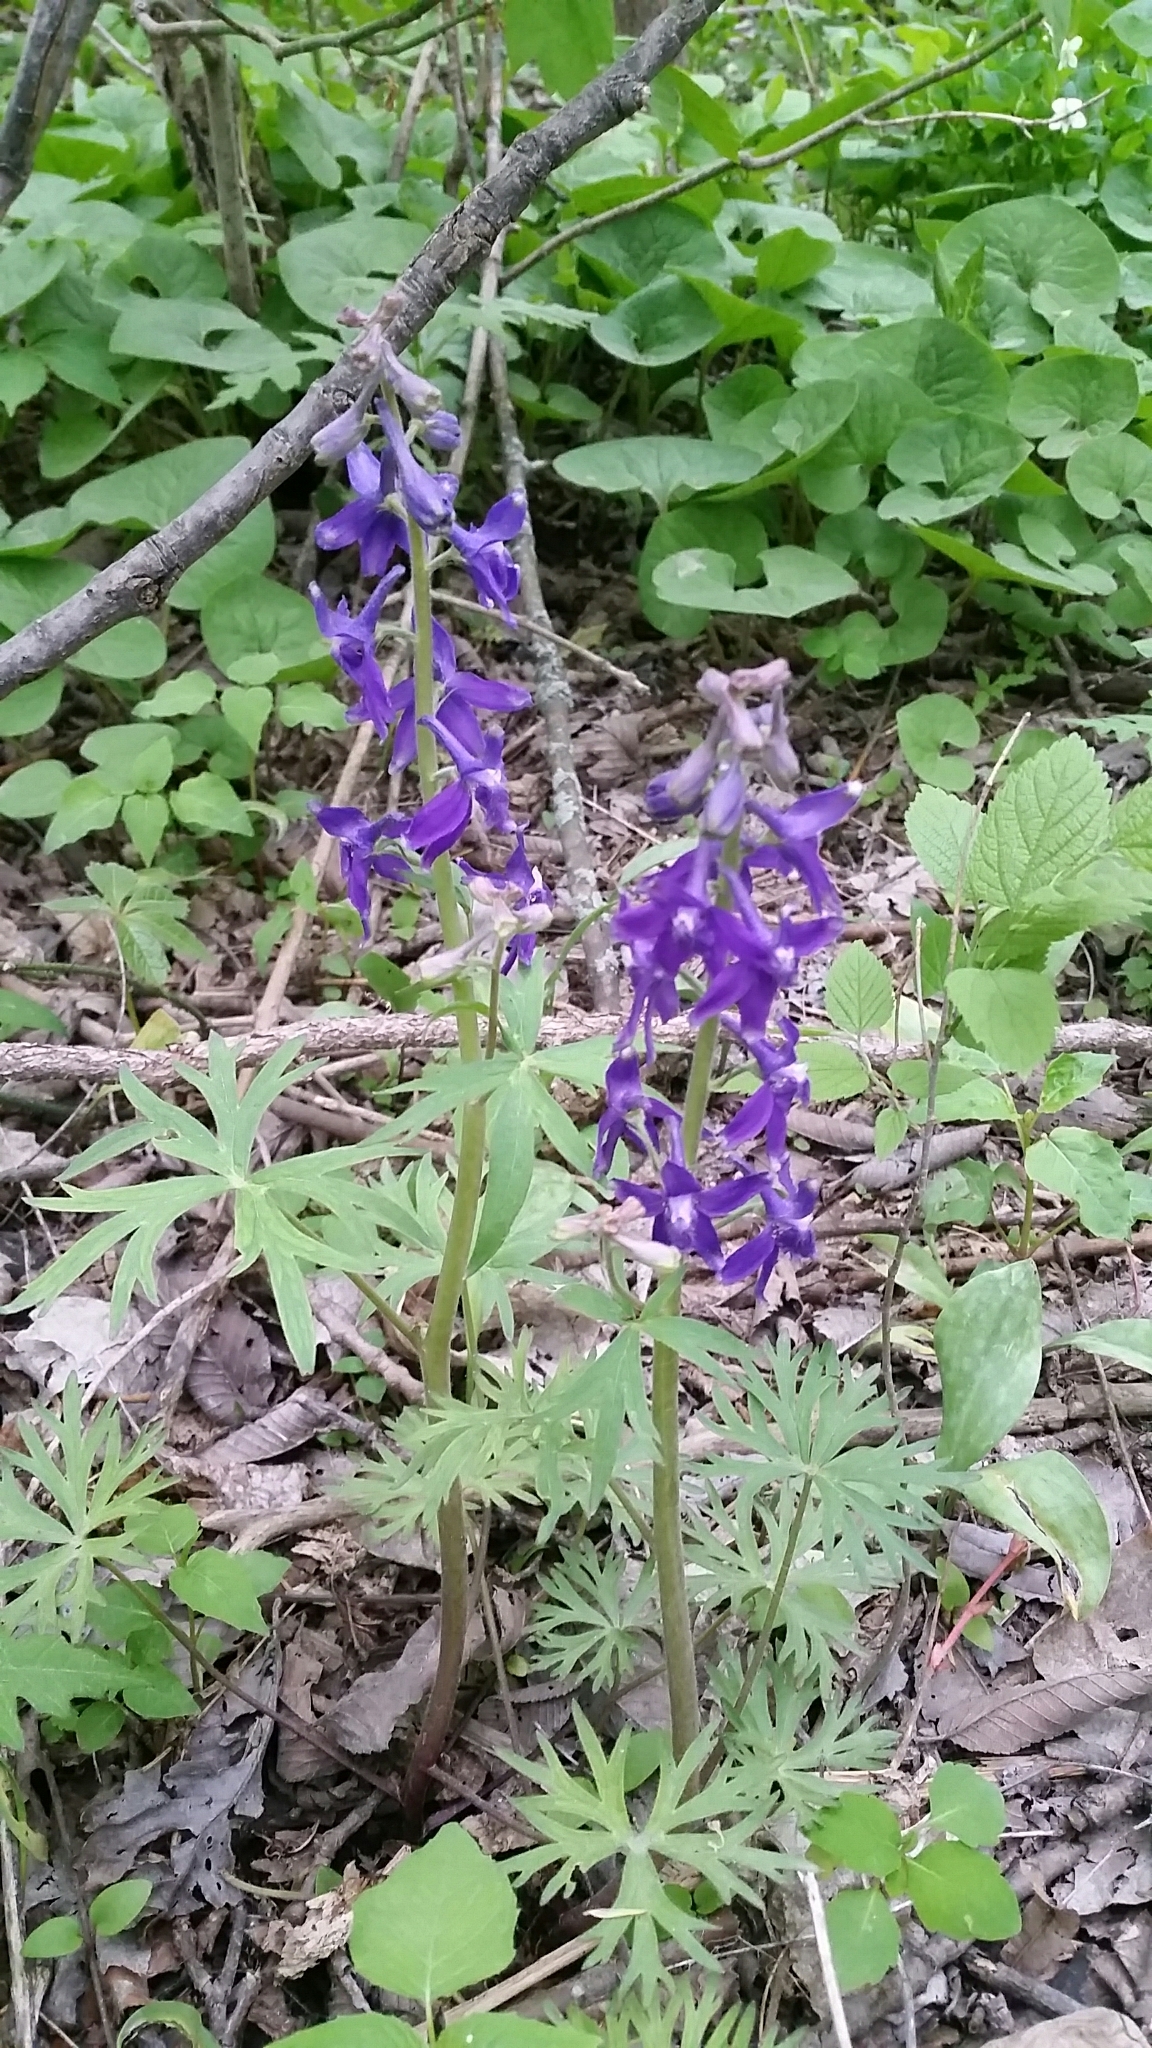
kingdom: Plantae
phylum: Tracheophyta
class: Magnoliopsida
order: Ranunculales
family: Ranunculaceae
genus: Delphinium
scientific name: Delphinium tricorne
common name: Dwarf larkspur
